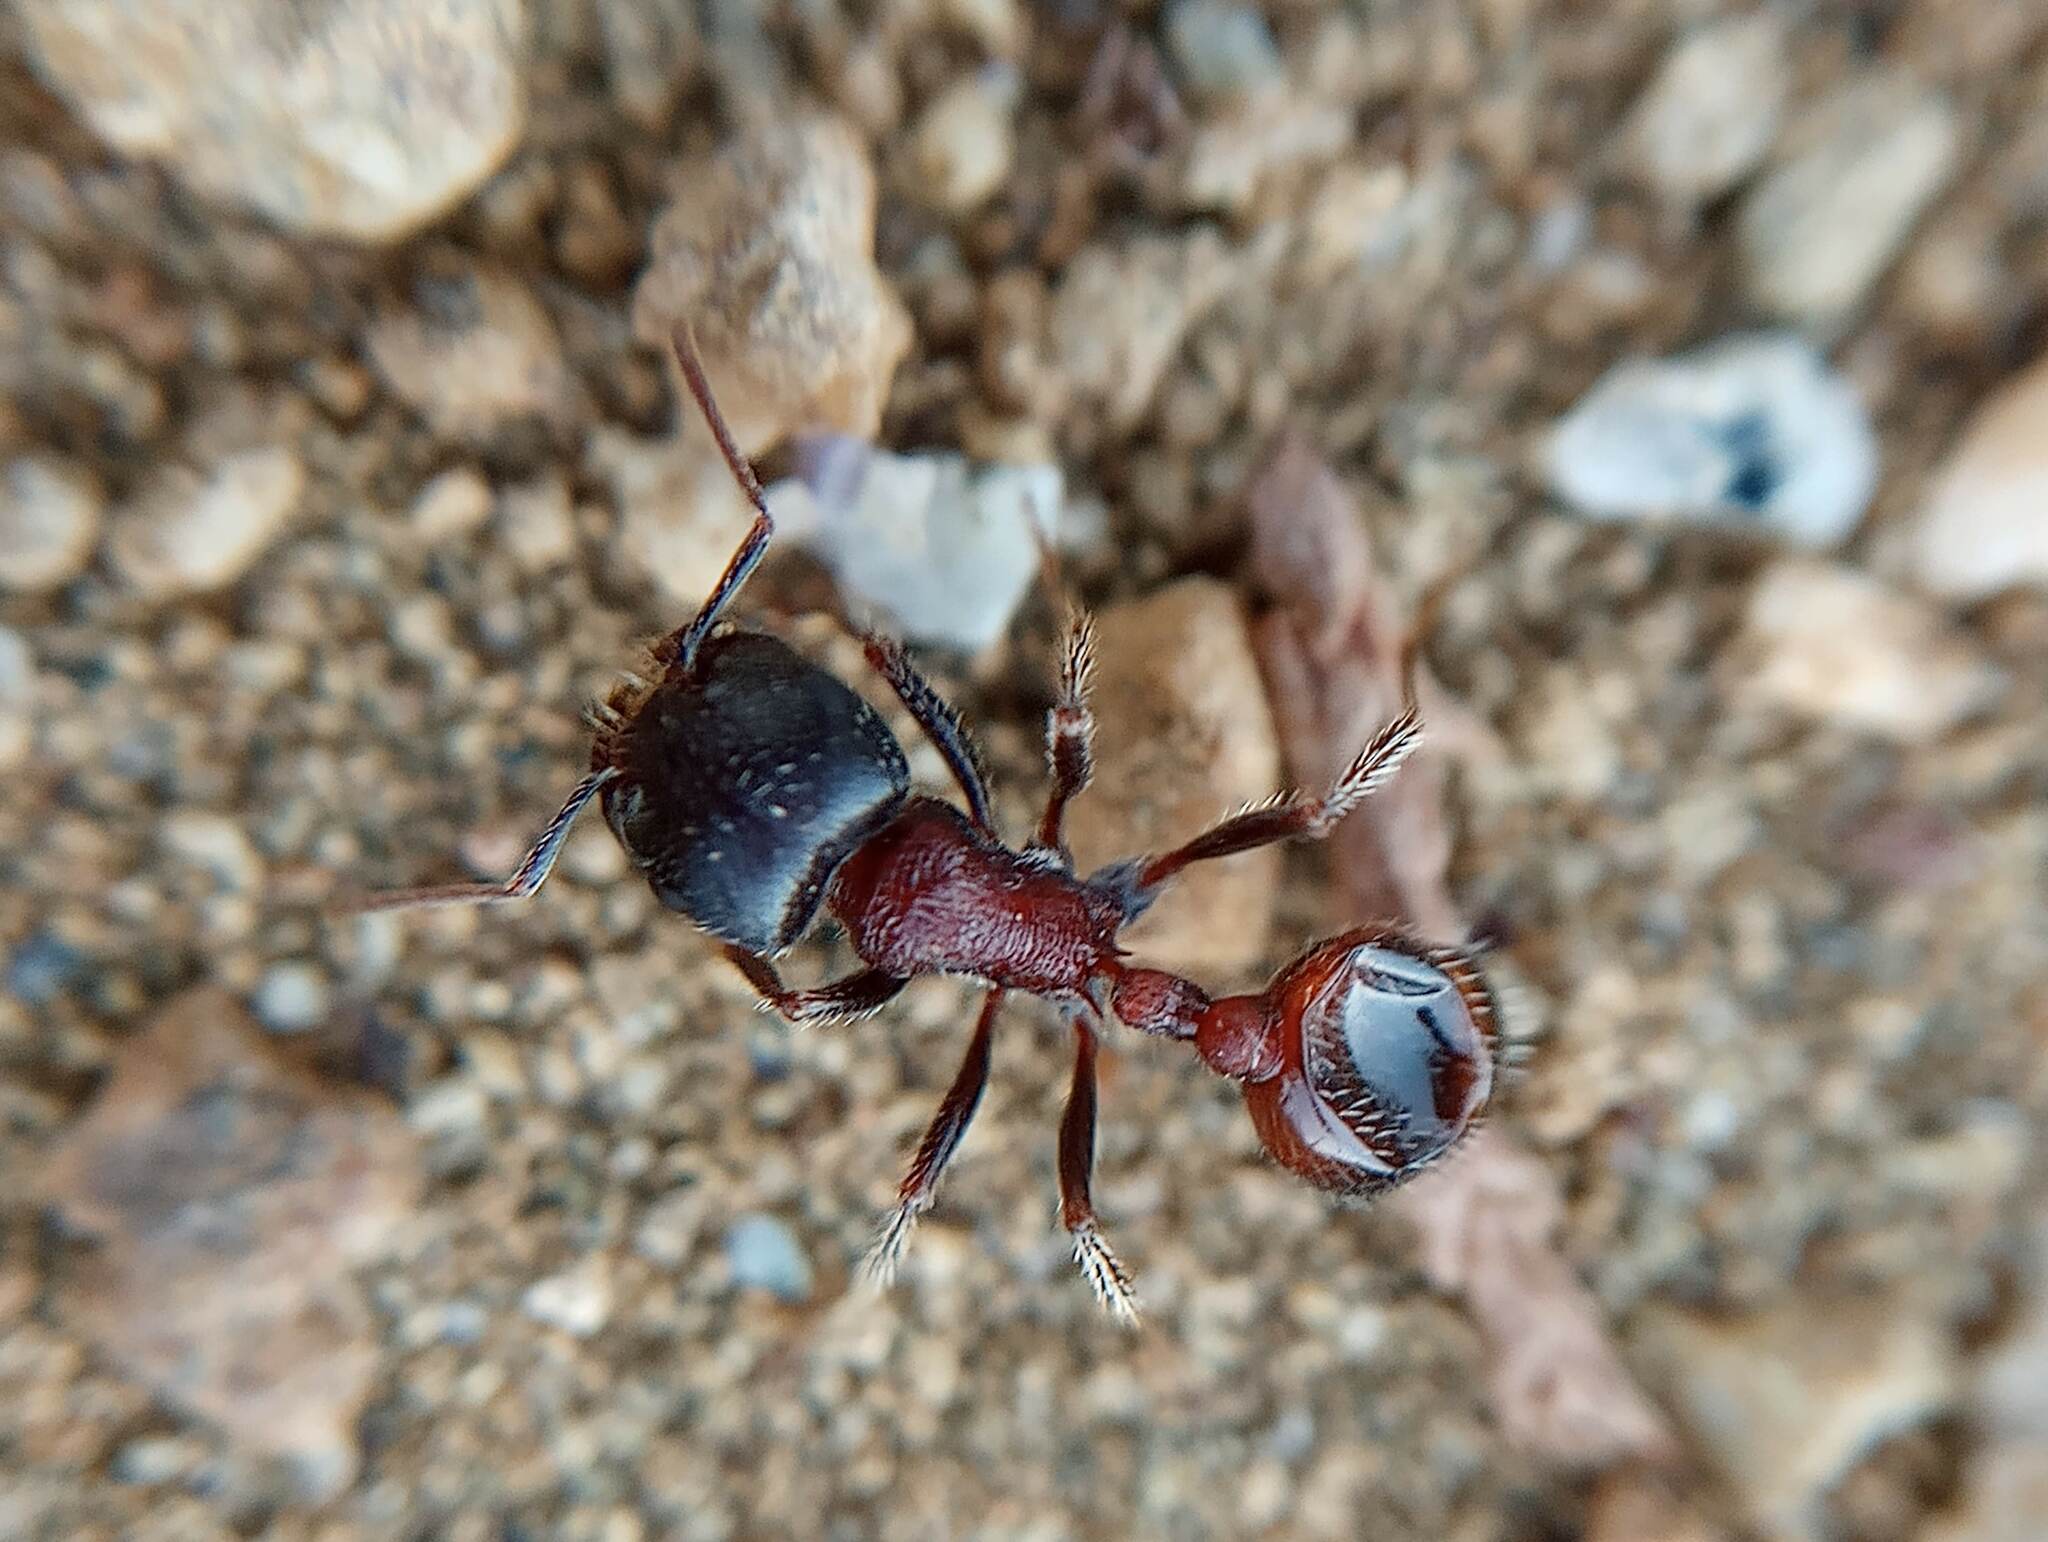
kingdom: Animalia
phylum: Arthropoda
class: Insecta
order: Hymenoptera
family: Formicidae
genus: Pogonomyrmex
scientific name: Pogonomyrmex rugosus
